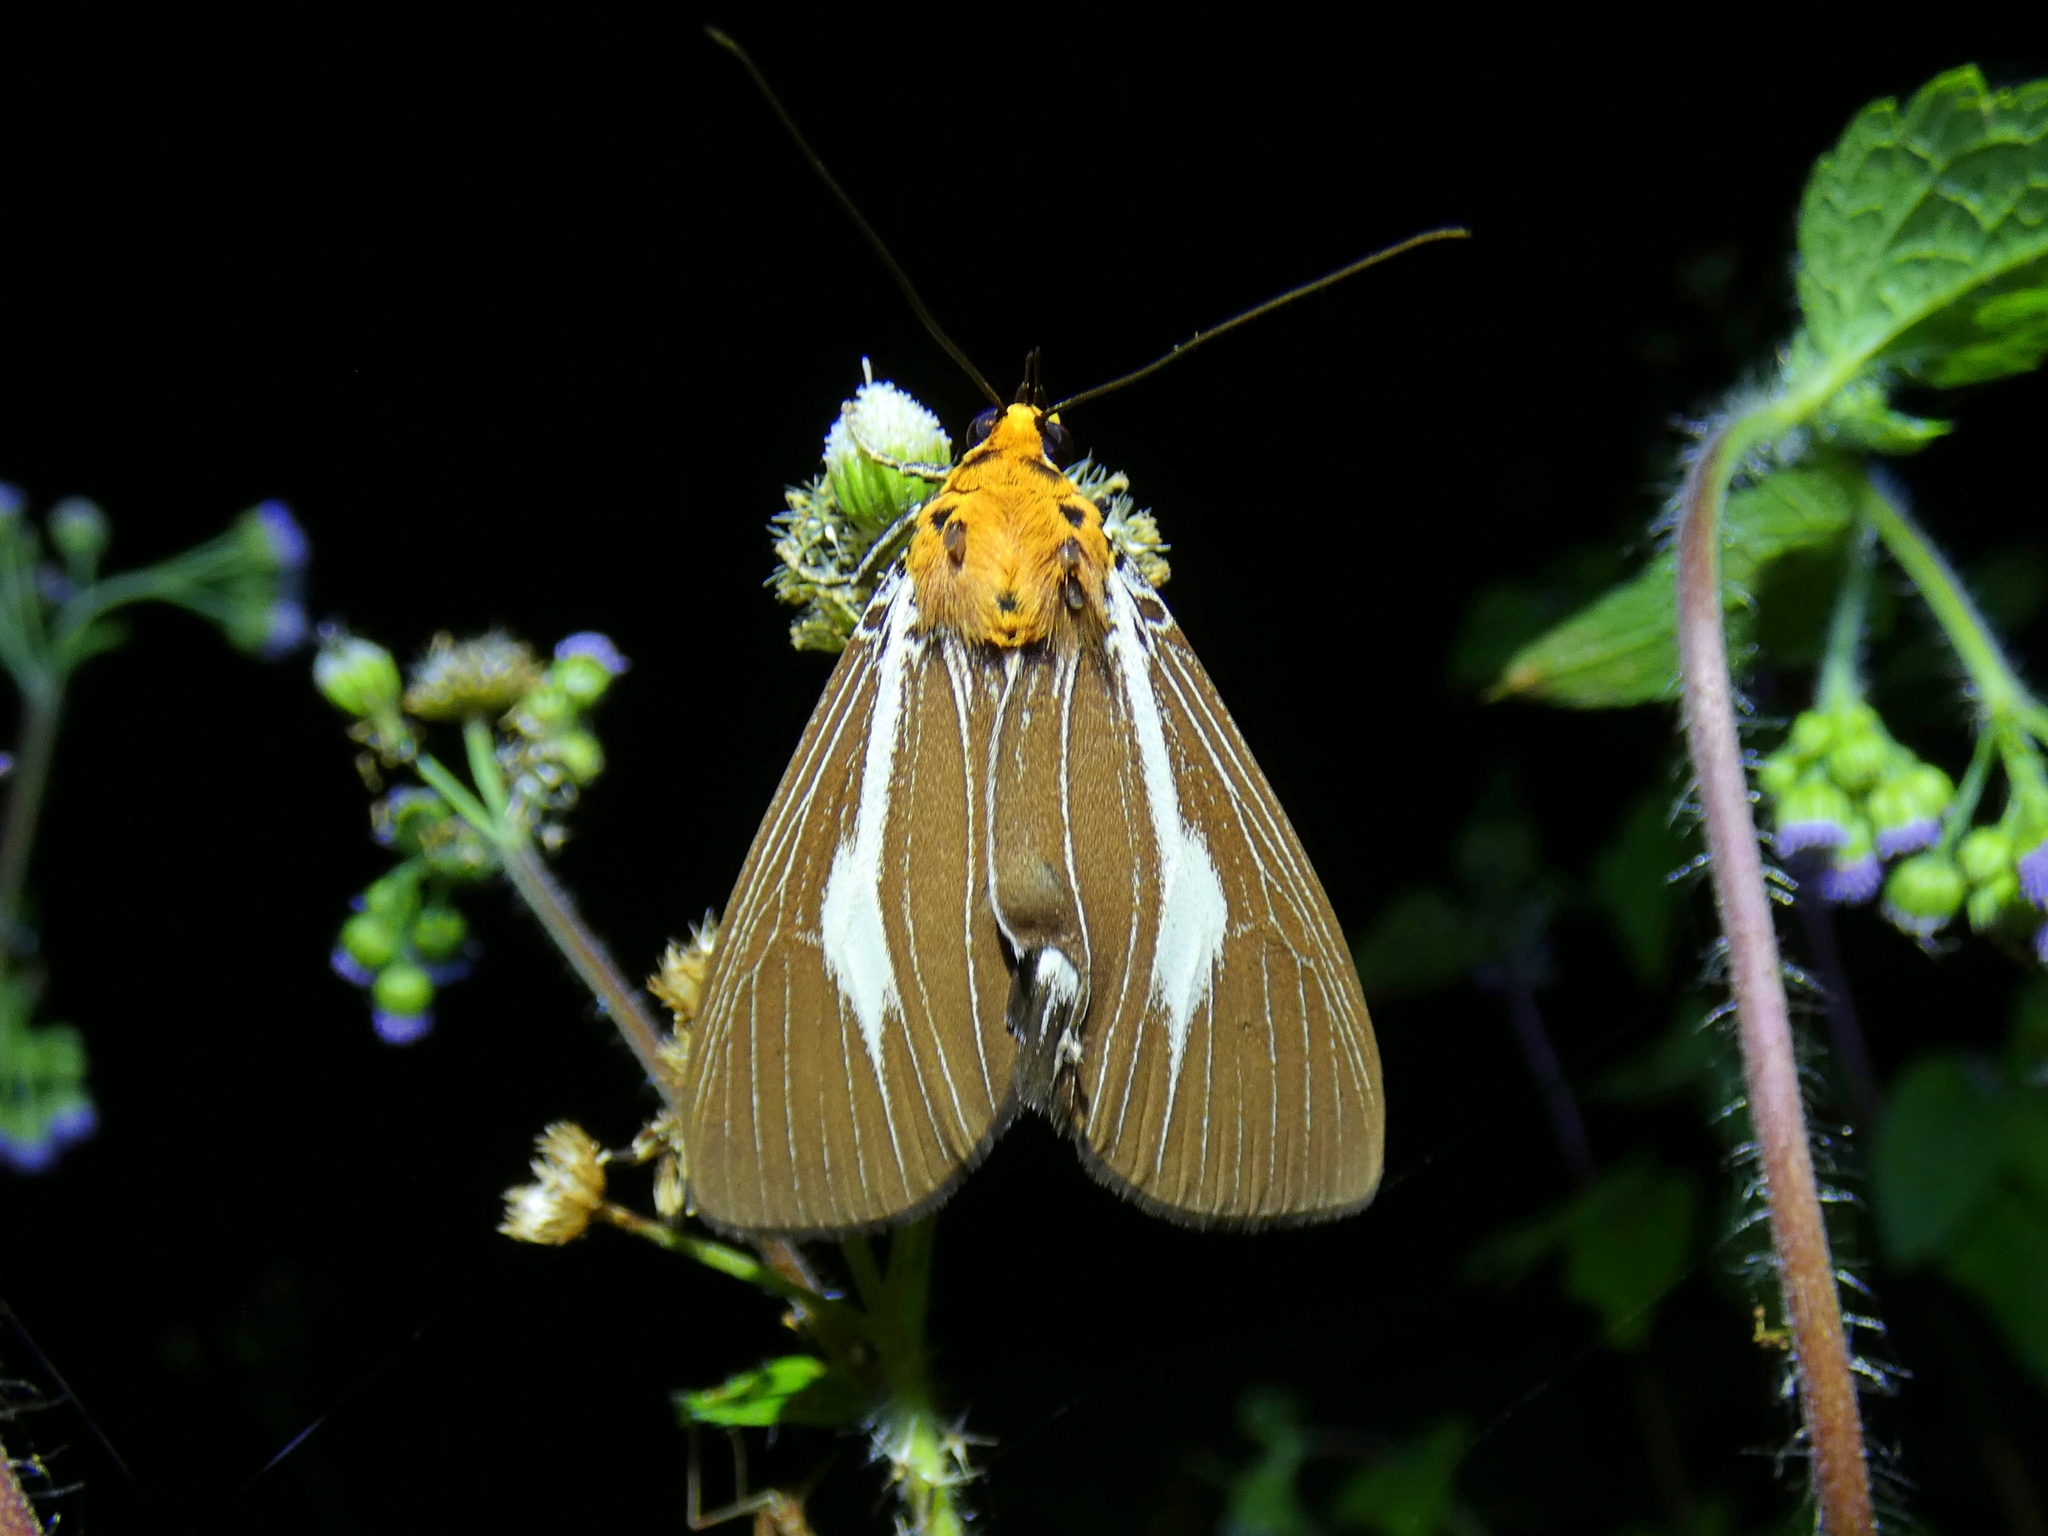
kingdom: Animalia
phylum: Arthropoda
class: Insecta
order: Lepidoptera
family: Erebidae
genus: Asota
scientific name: Asota heliconia
